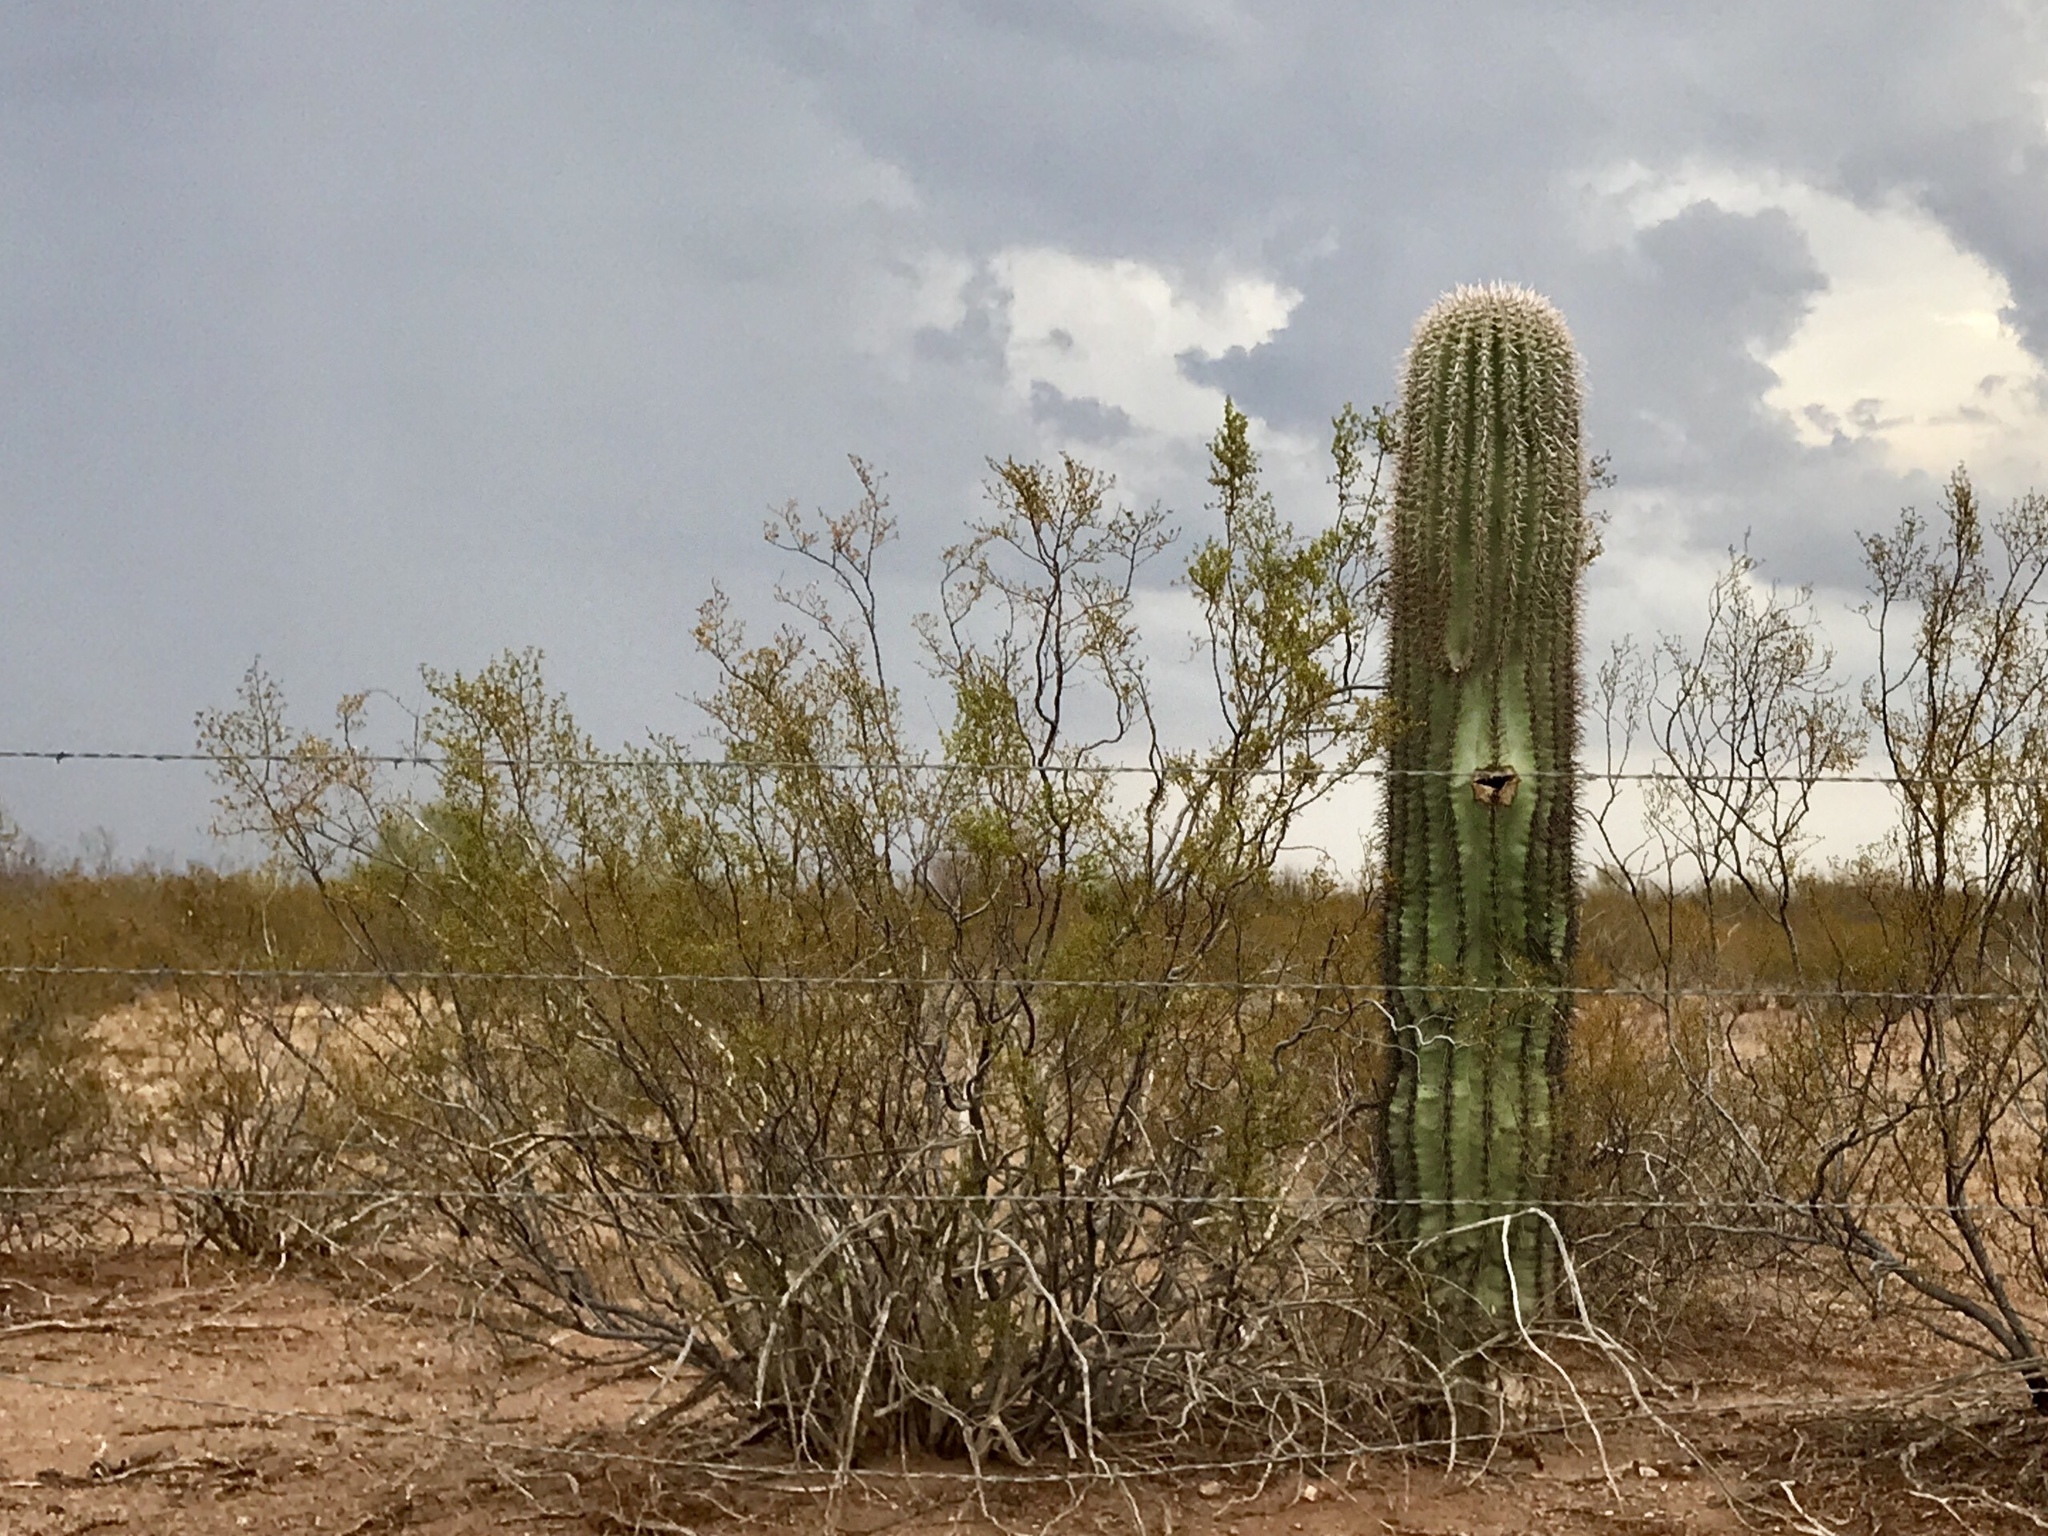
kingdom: Plantae
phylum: Tracheophyta
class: Magnoliopsida
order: Zygophyllales
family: Zygophyllaceae
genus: Larrea
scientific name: Larrea tridentata
